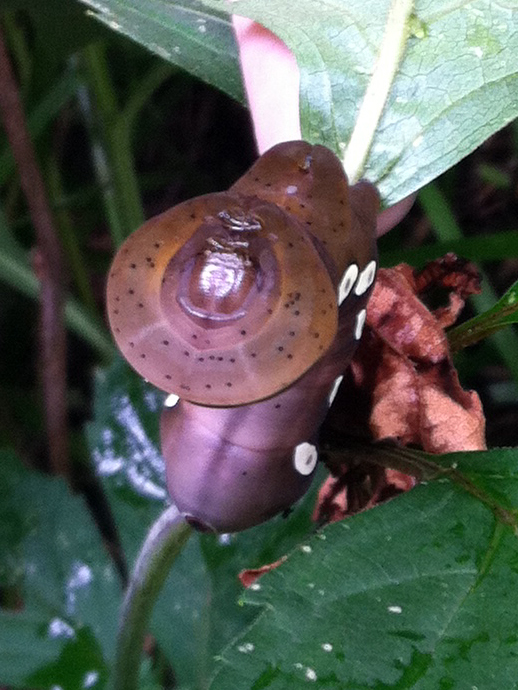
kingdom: Animalia
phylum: Arthropoda
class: Insecta
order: Lepidoptera
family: Sphingidae
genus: Eumorpha
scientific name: Eumorpha pandorus
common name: Pandora sphinx
